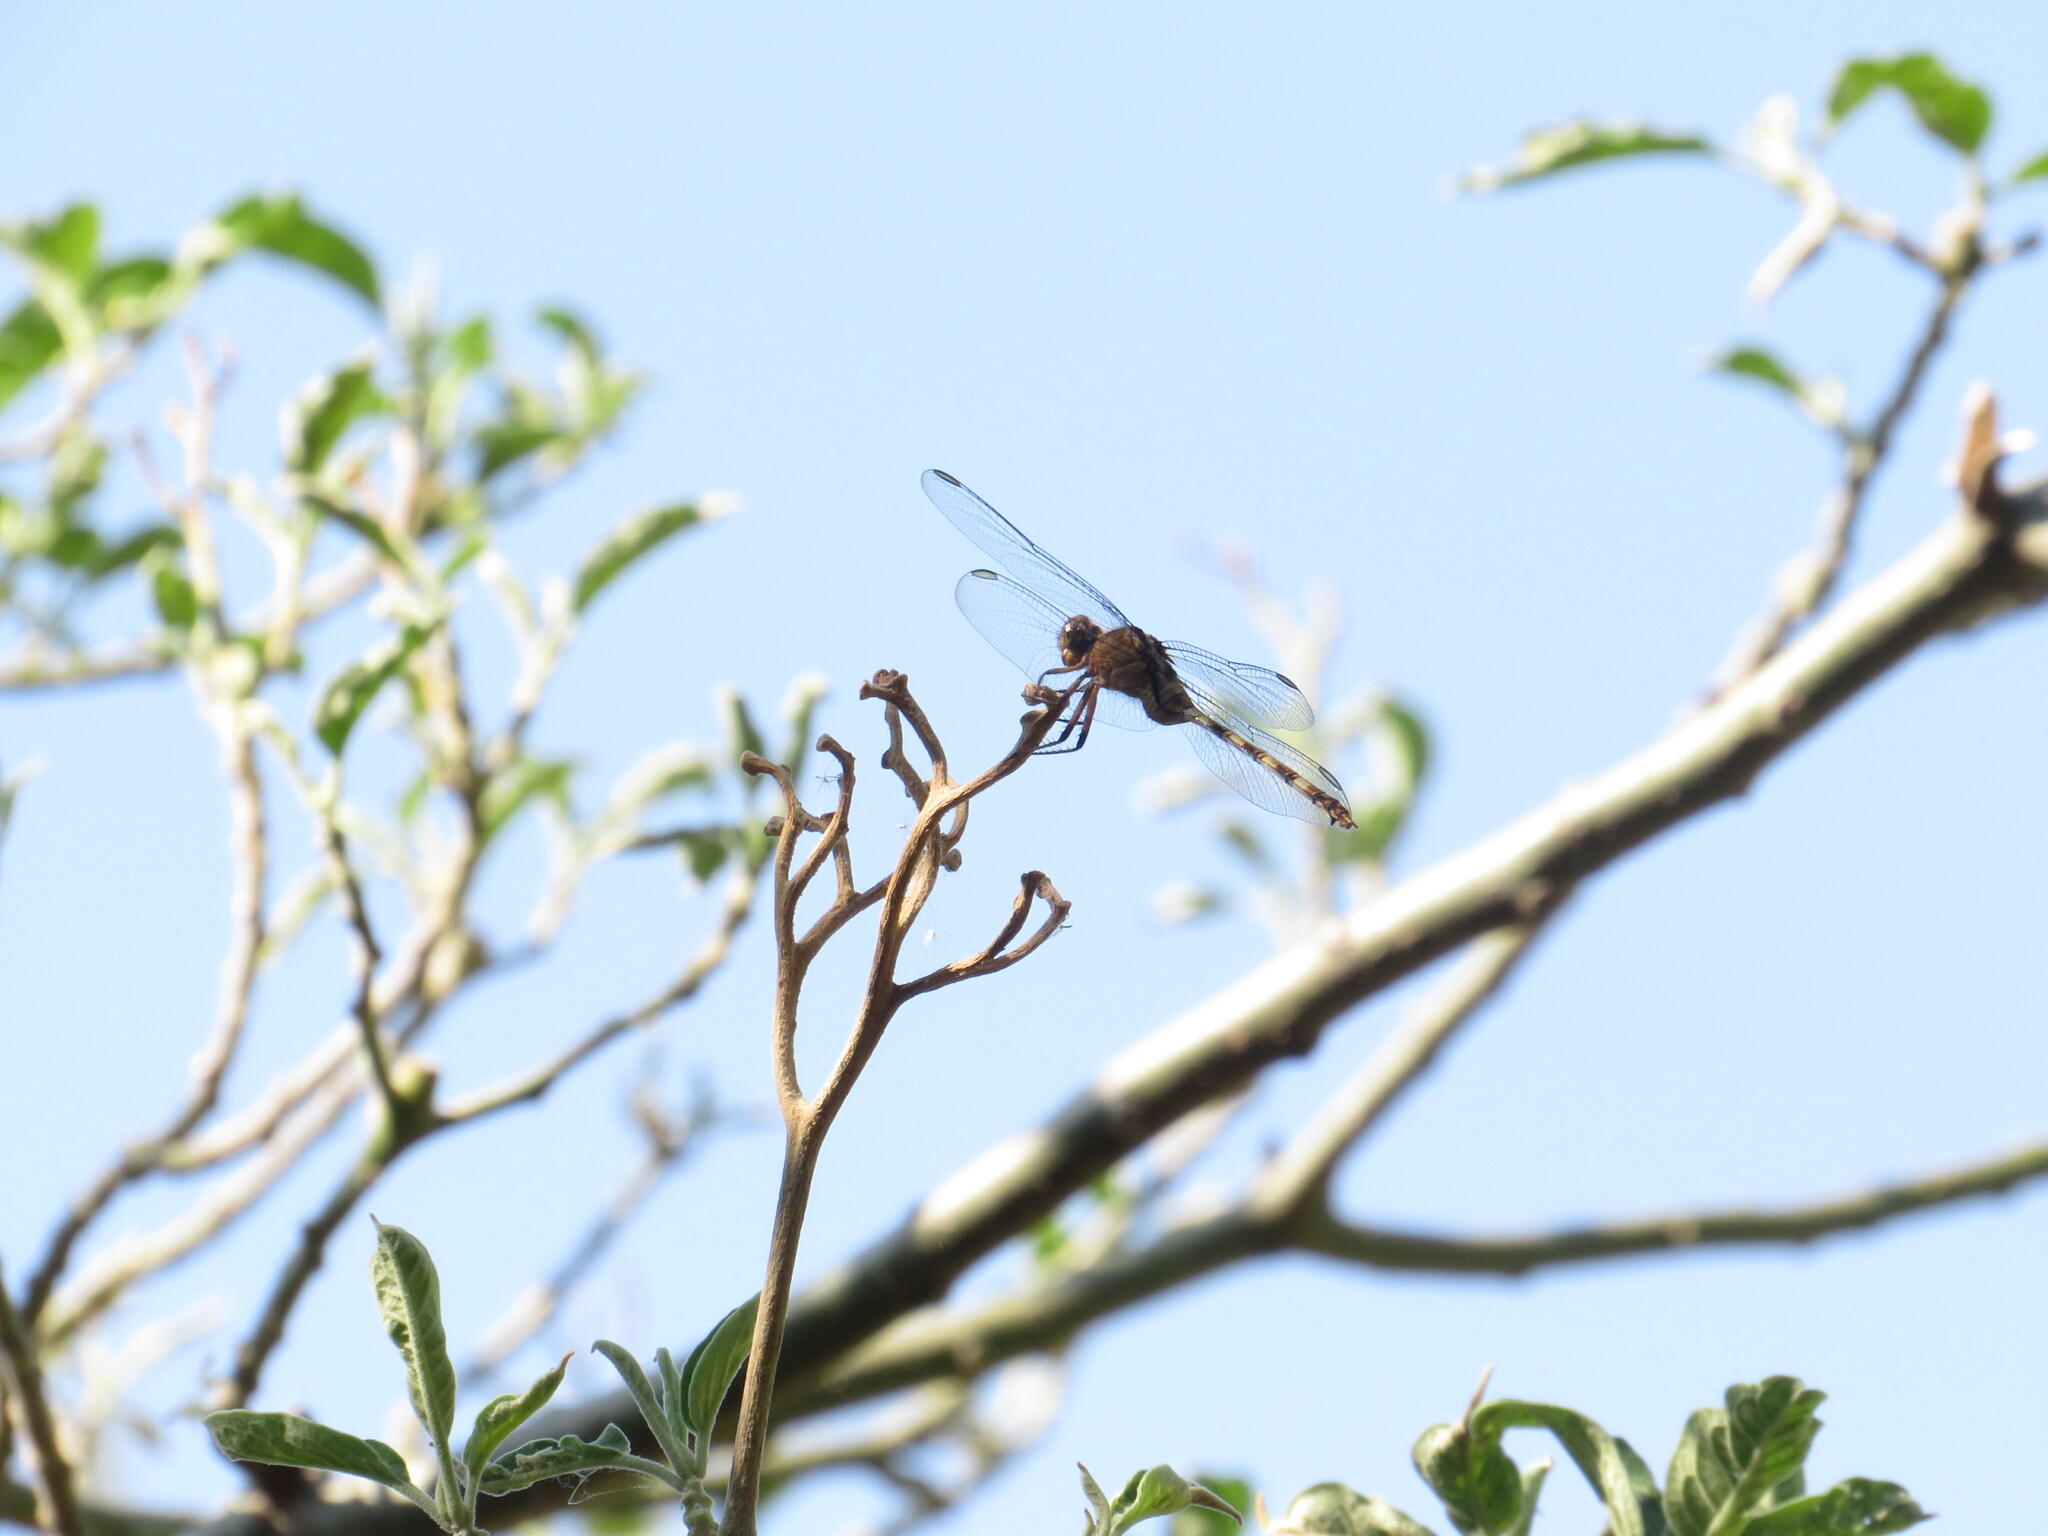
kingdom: Animalia
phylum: Arthropoda
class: Insecta
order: Odonata
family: Libellulidae
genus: Erythemis
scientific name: Erythemis plebeja
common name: Pin-tailed pondhawk
